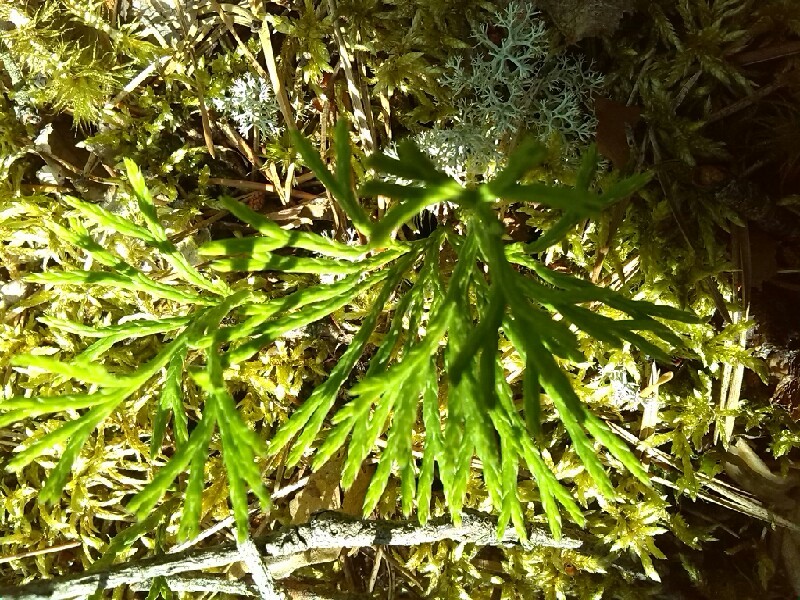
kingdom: Plantae
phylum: Tracheophyta
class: Lycopodiopsida
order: Lycopodiales
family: Lycopodiaceae
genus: Diphasiastrum
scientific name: Diphasiastrum zeilleri
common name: Zeiller's clubmoss
